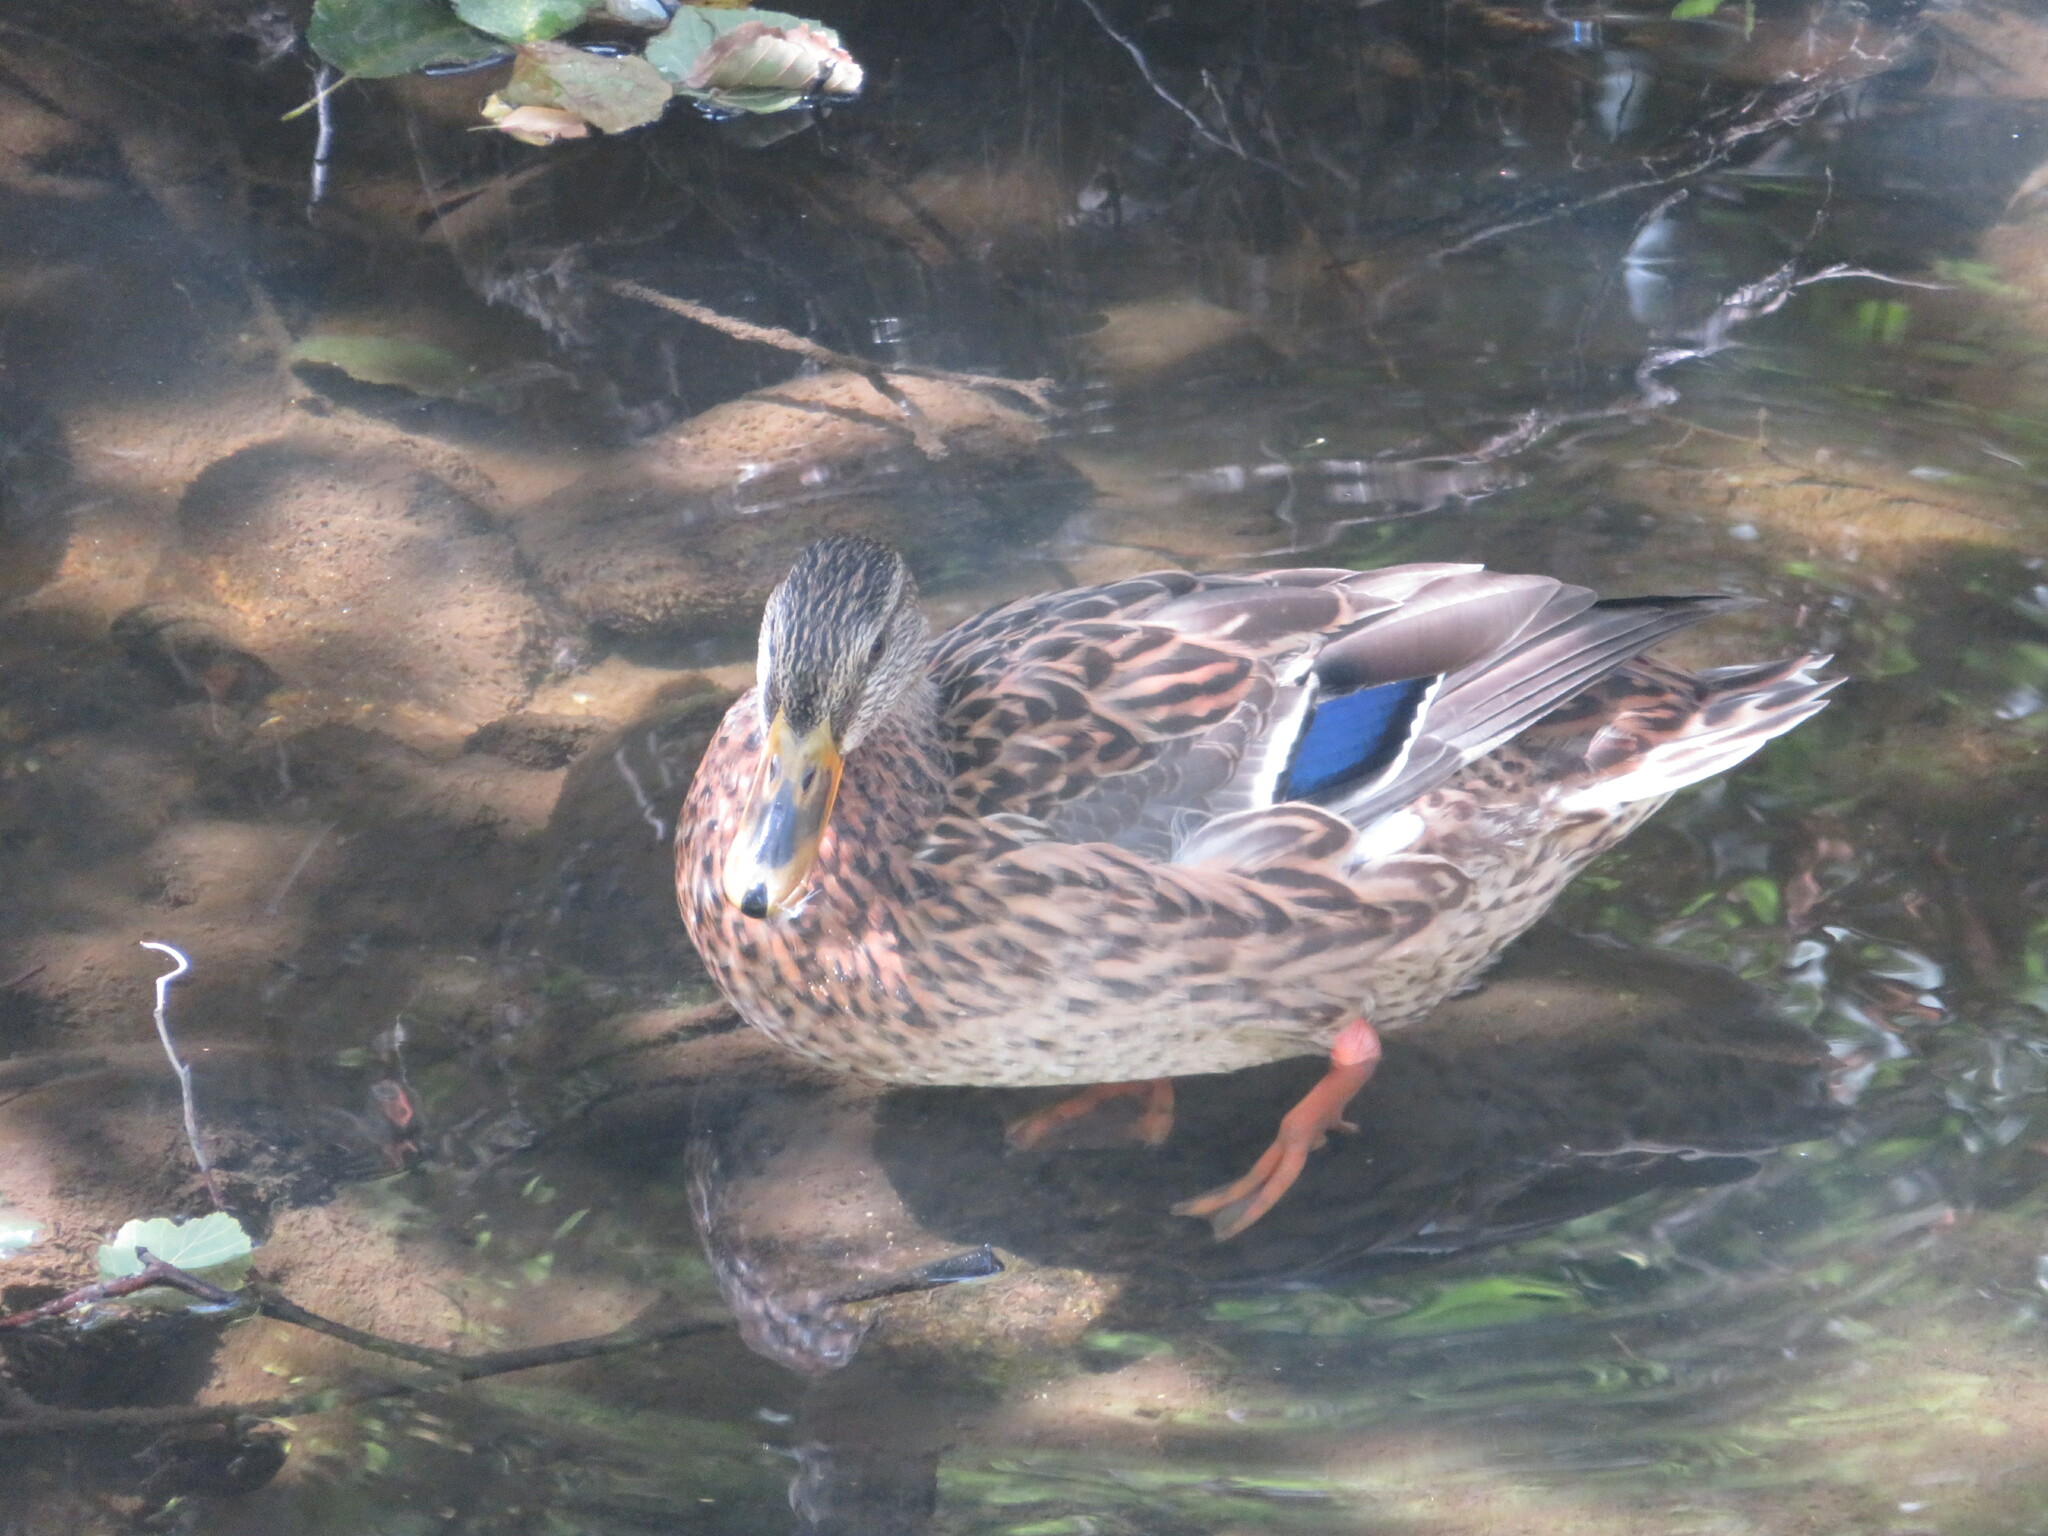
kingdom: Animalia
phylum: Chordata
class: Aves
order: Anseriformes
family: Anatidae
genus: Anas
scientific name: Anas platyrhynchos
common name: Mallard
